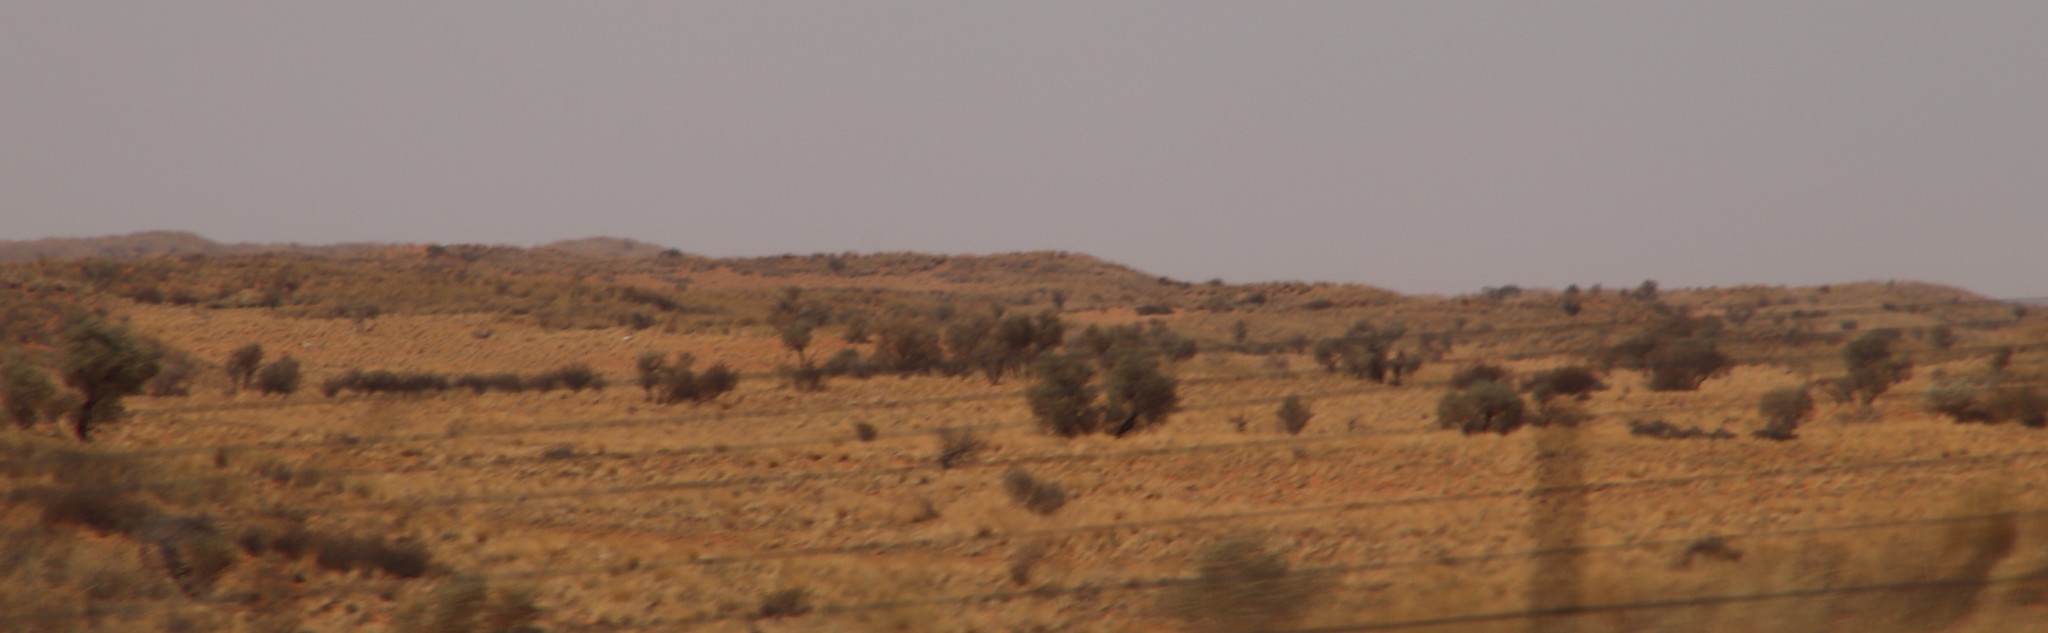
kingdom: Plantae
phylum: Tracheophyta
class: Magnoliopsida
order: Fabales
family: Fabaceae
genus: Vachellia
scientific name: Vachellia haematoxylon
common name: Grey camel thorn
